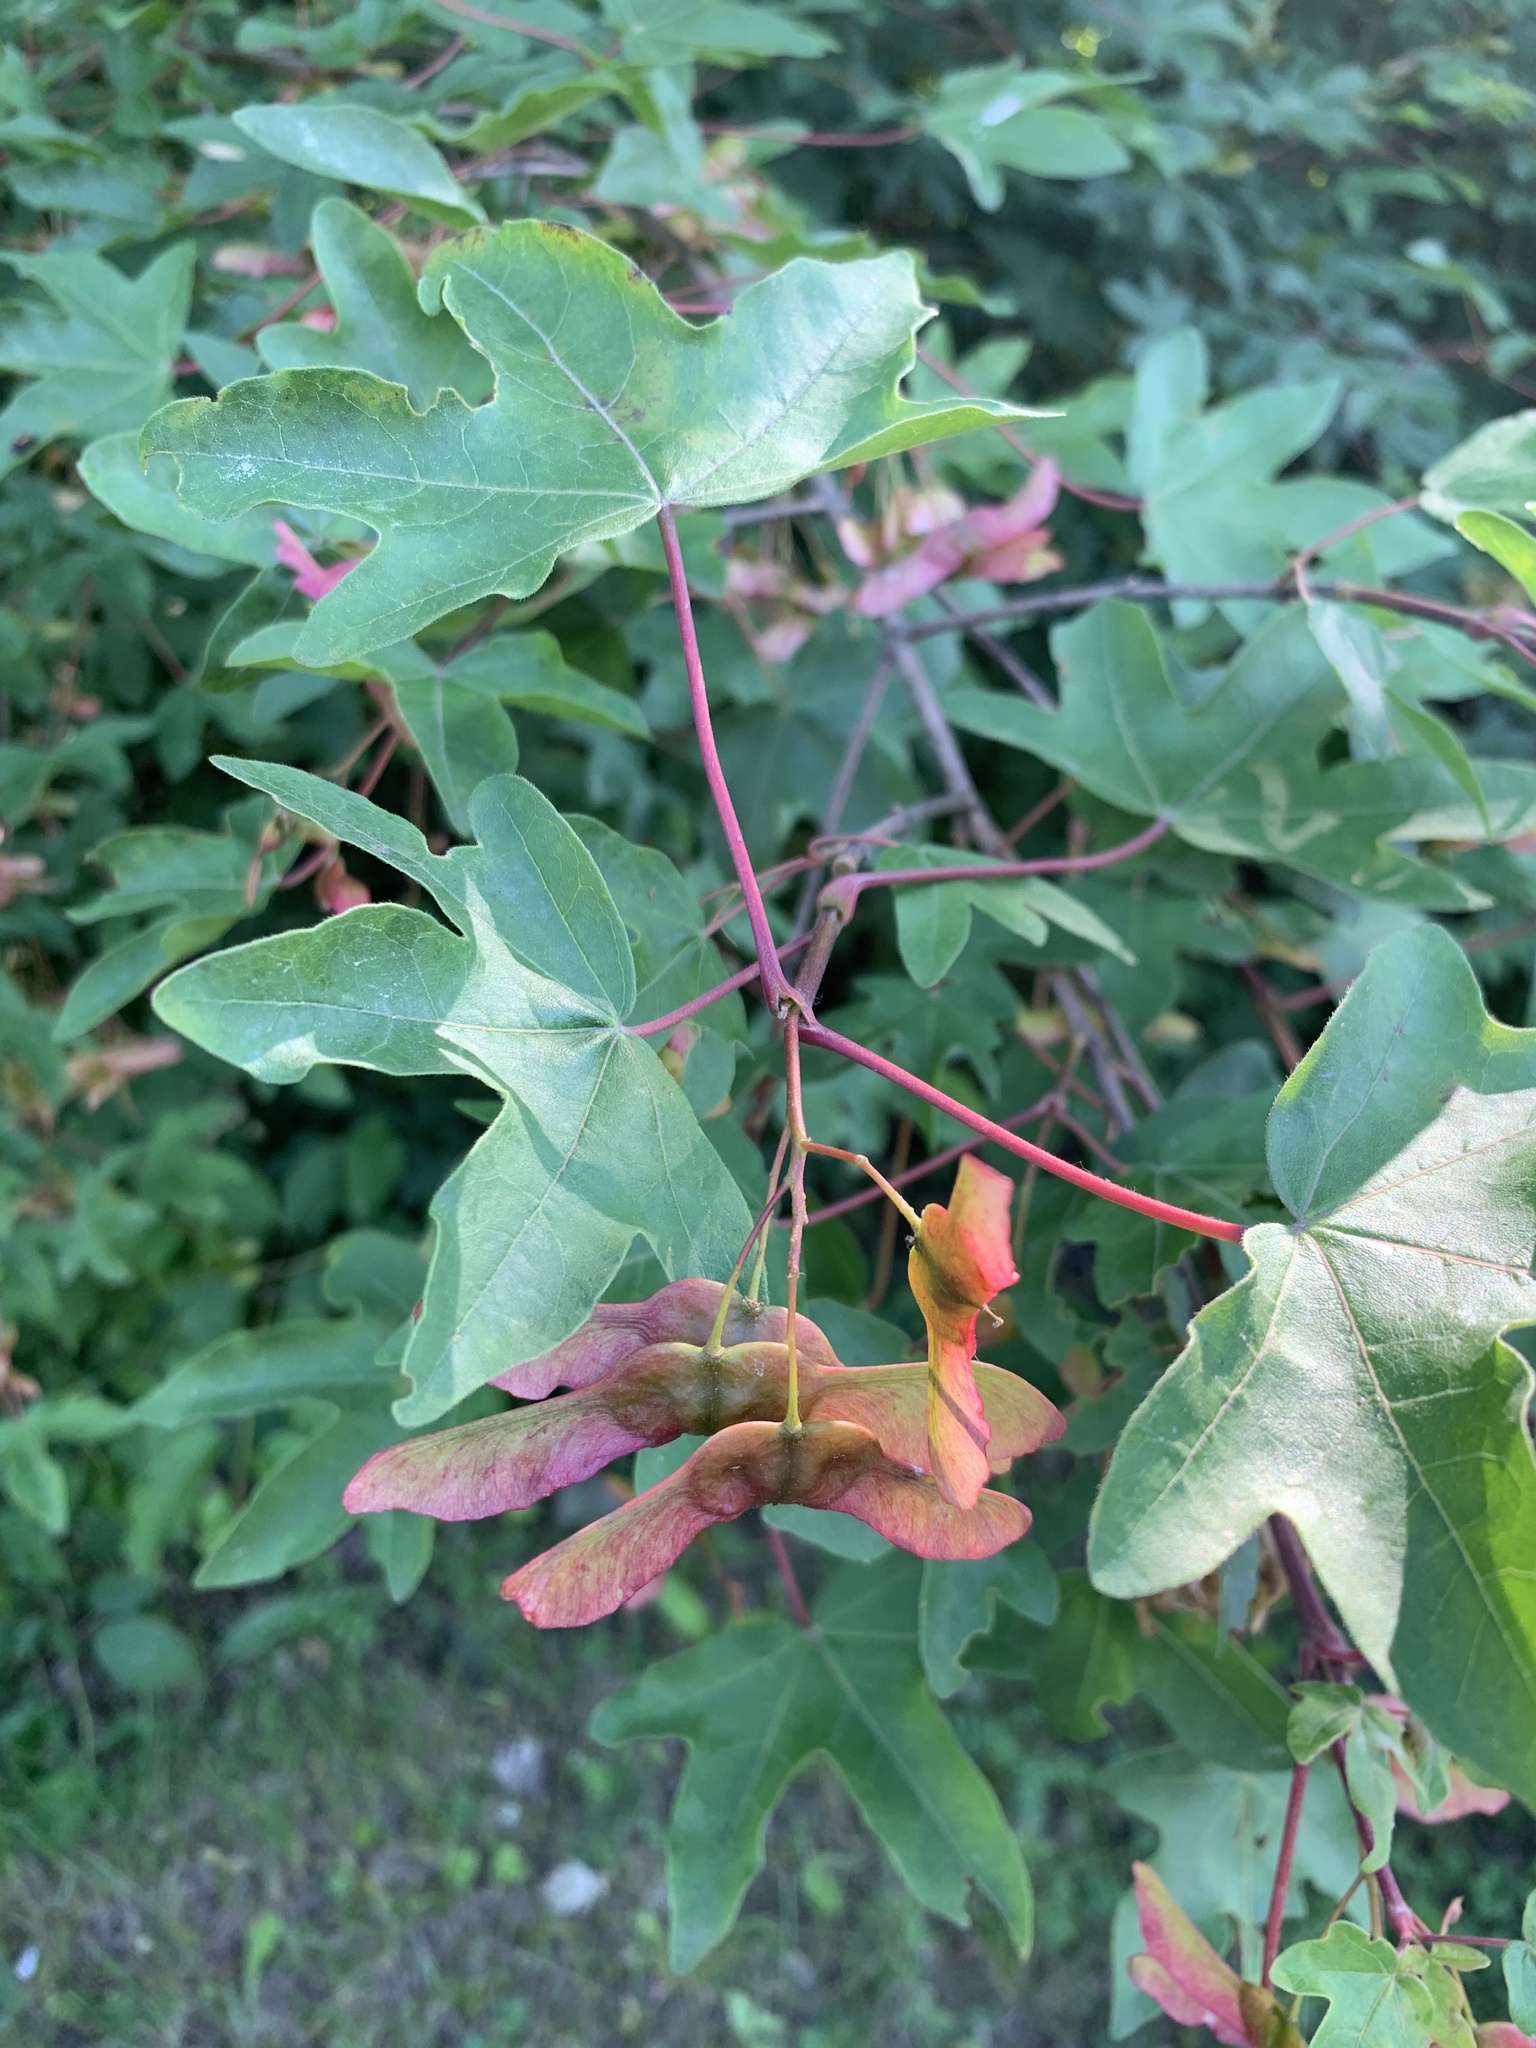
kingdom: Plantae
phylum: Tracheophyta
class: Magnoliopsida
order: Sapindales
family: Sapindaceae
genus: Acer
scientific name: Acer campestre
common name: Field maple
